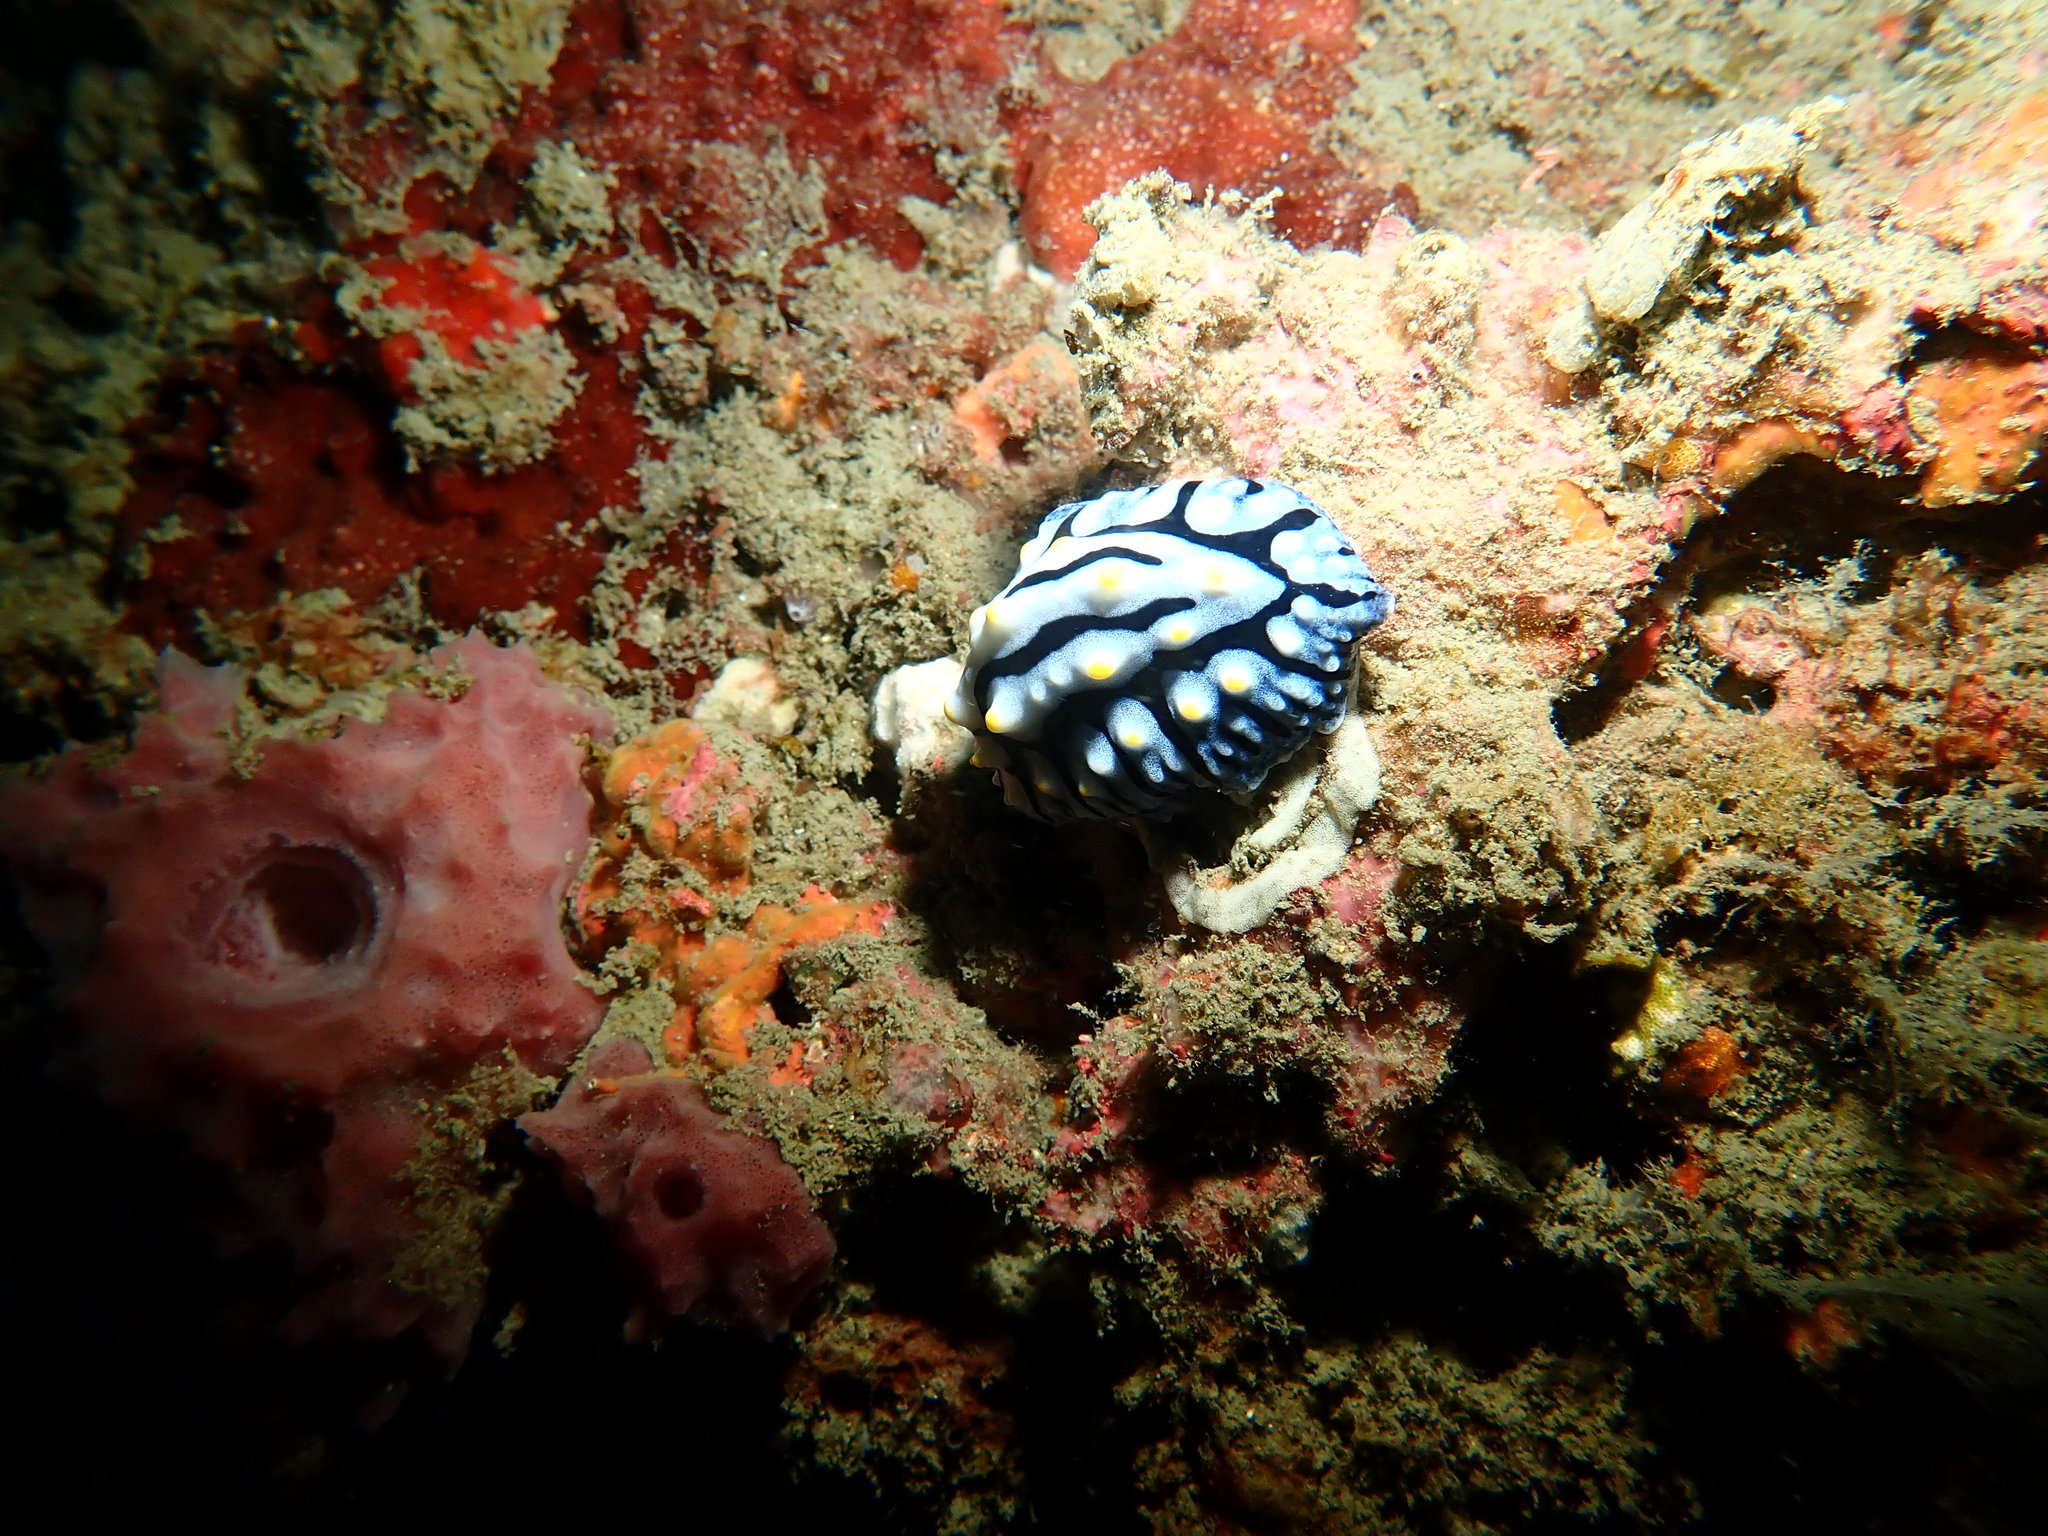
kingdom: Animalia
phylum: Mollusca
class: Gastropoda
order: Nudibranchia
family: Phyllidiidae
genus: Phyllidia
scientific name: Phyllidia varicosa
